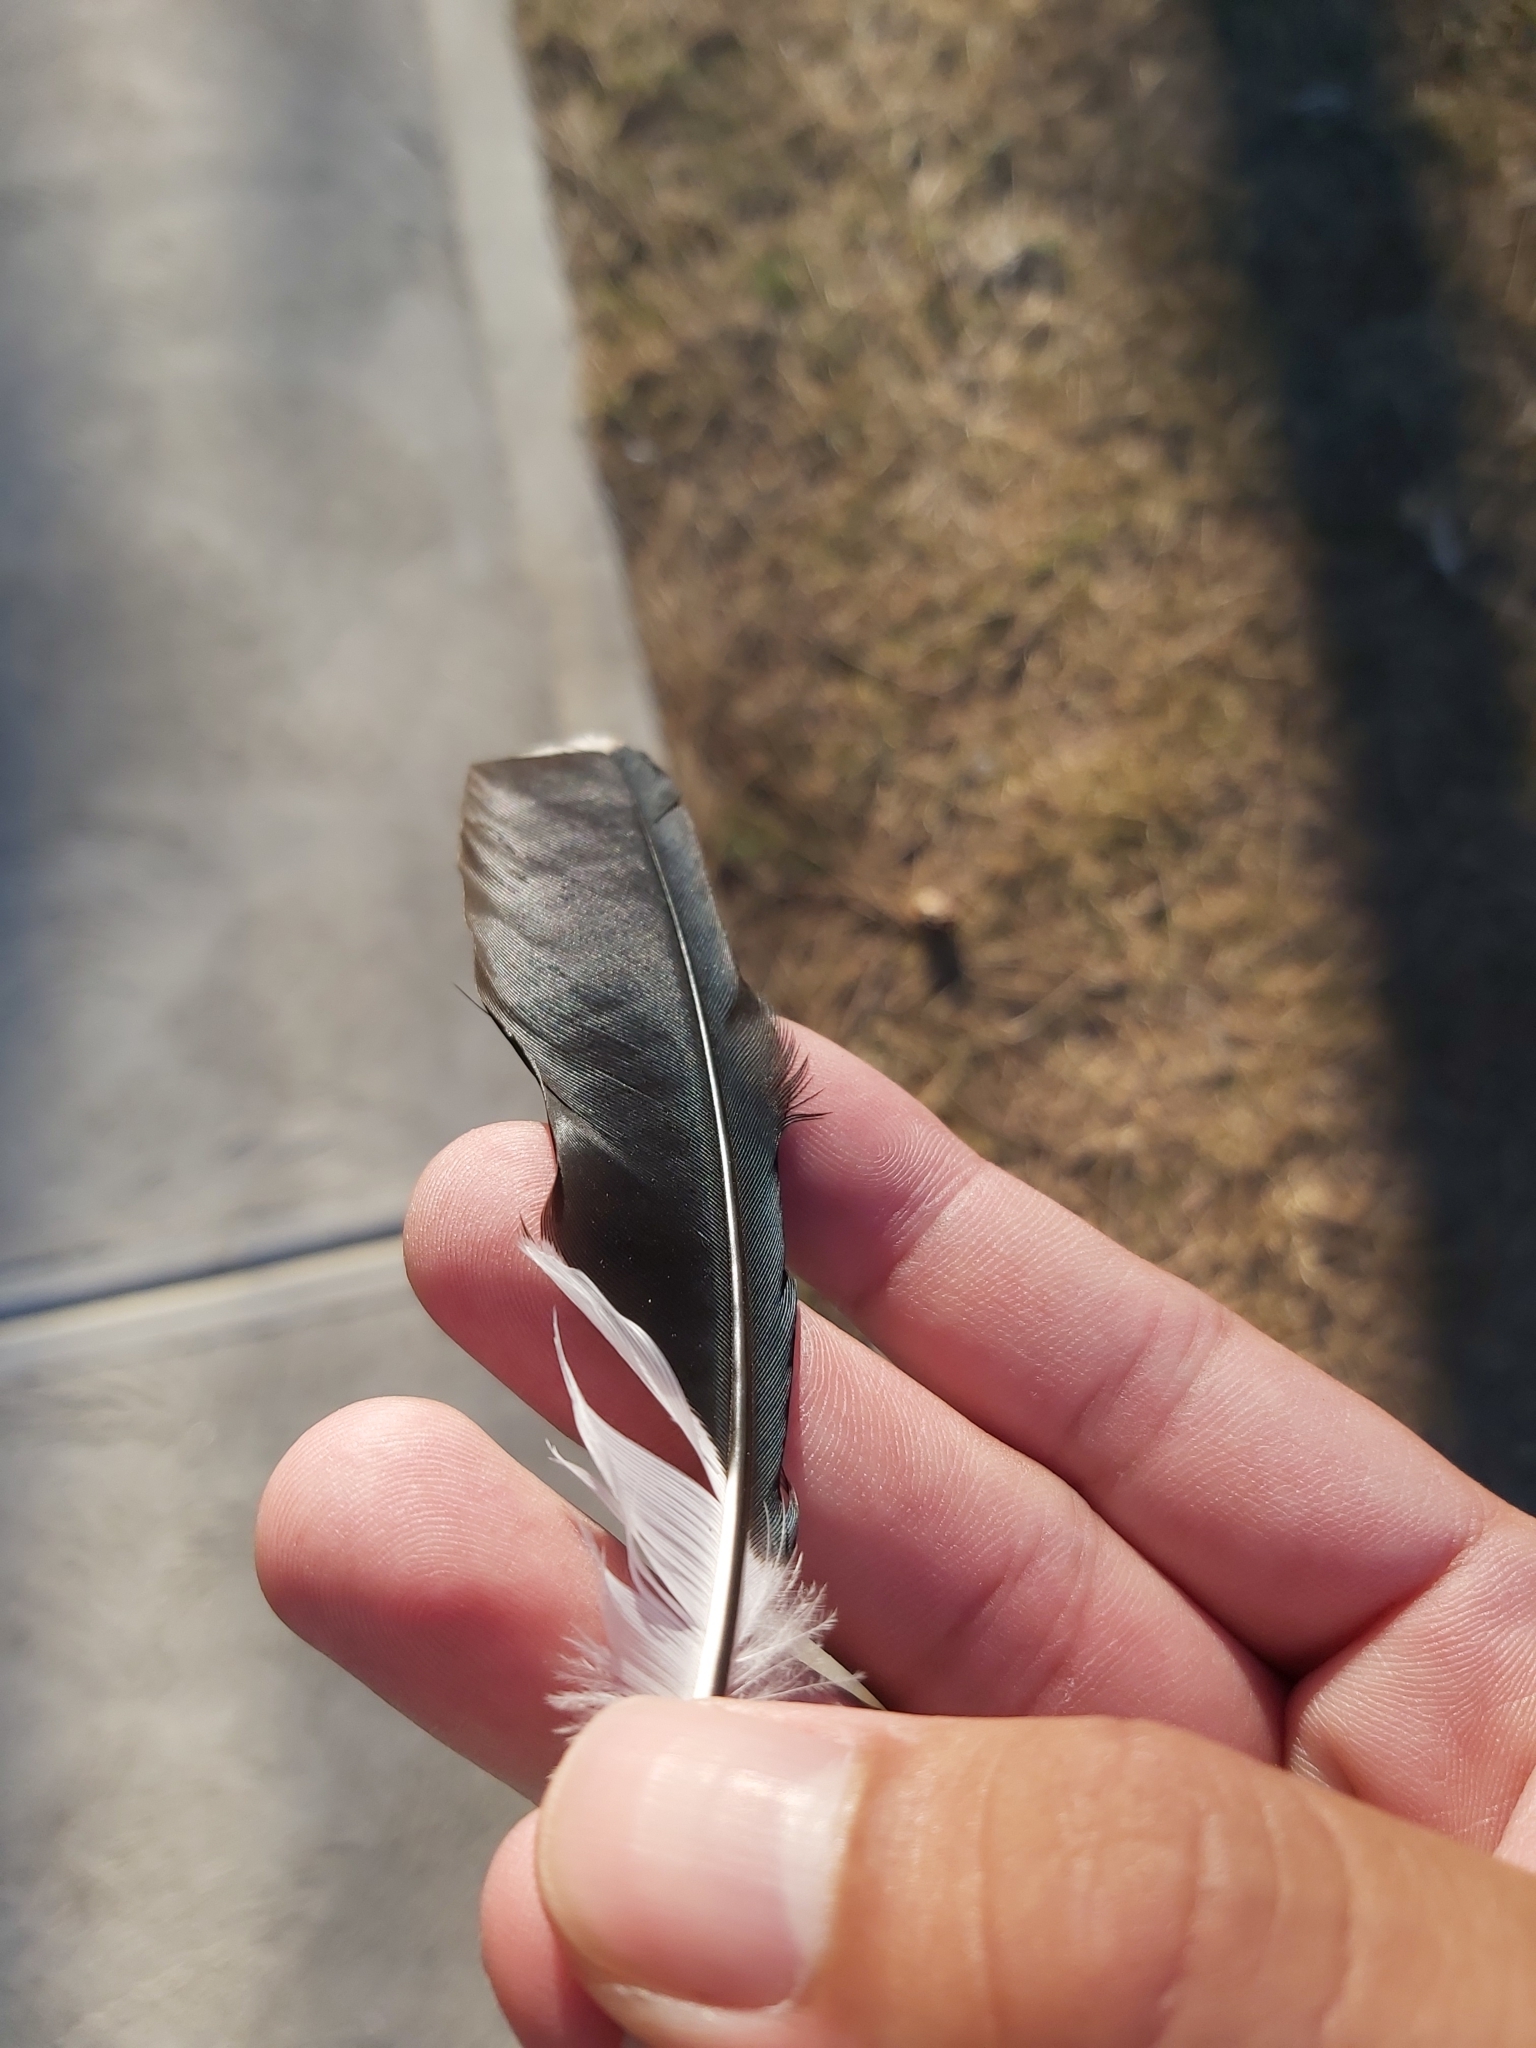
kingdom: Animalia
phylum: Chordata
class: Aves
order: Passeriformes
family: Monarchidae
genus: Grallina
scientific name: Grallina cyanoleuca
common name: Magpie-lark
